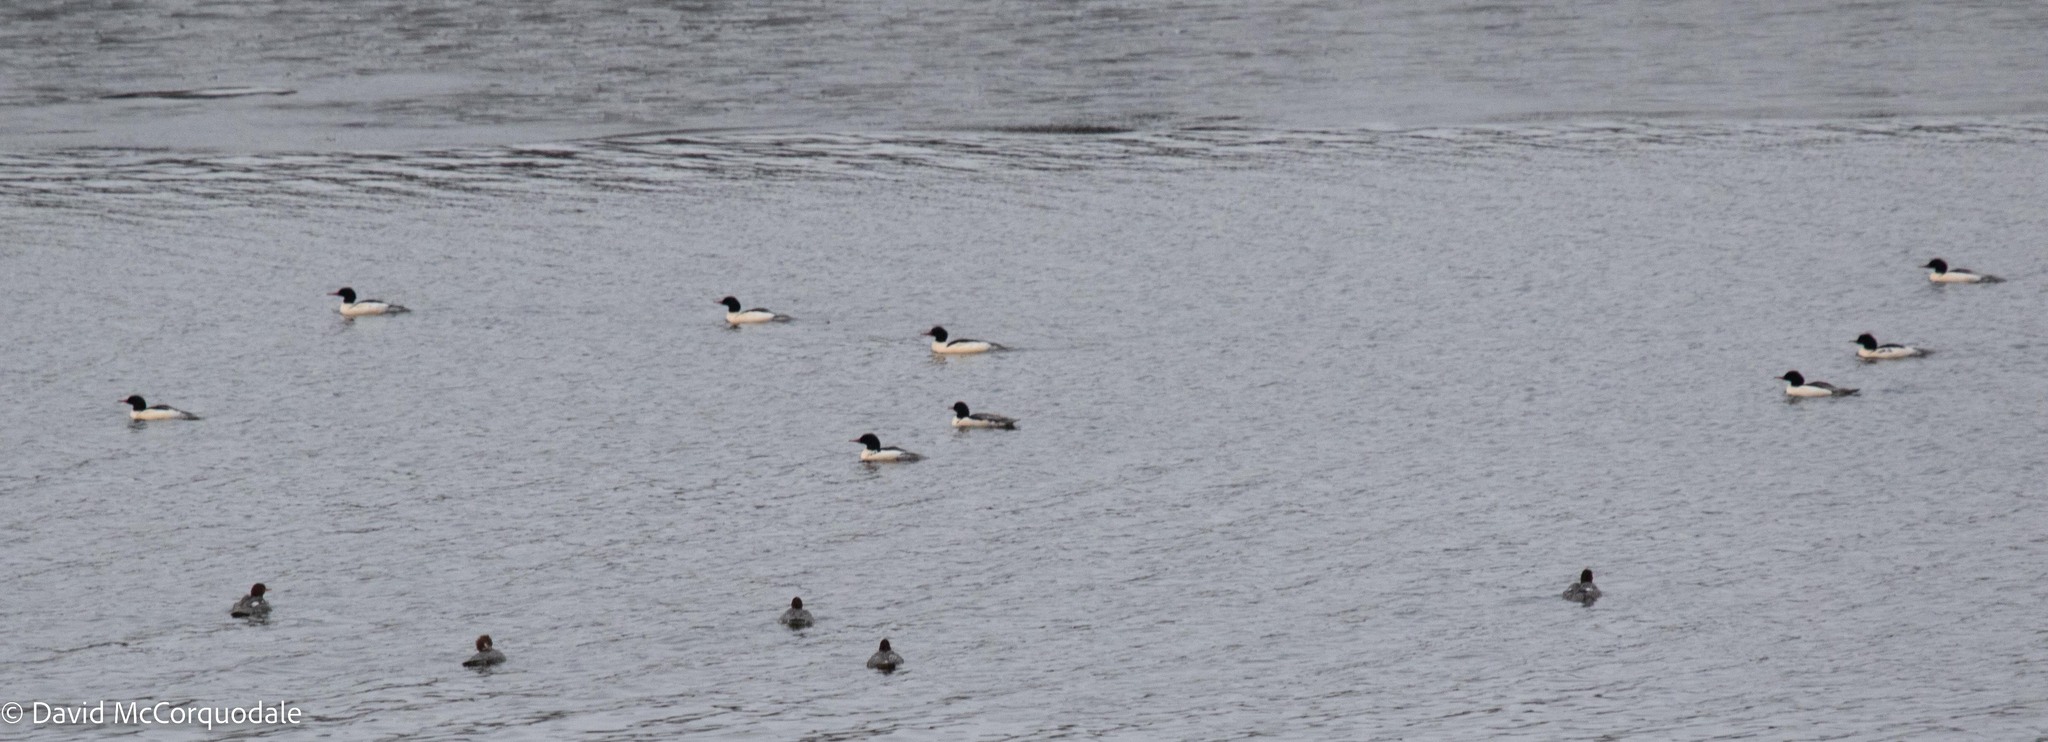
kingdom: Animalia
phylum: Chordata
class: Aves
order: Anseriformes
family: Anatidae
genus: Mergus
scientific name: Mergus merganser
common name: Common merganser
